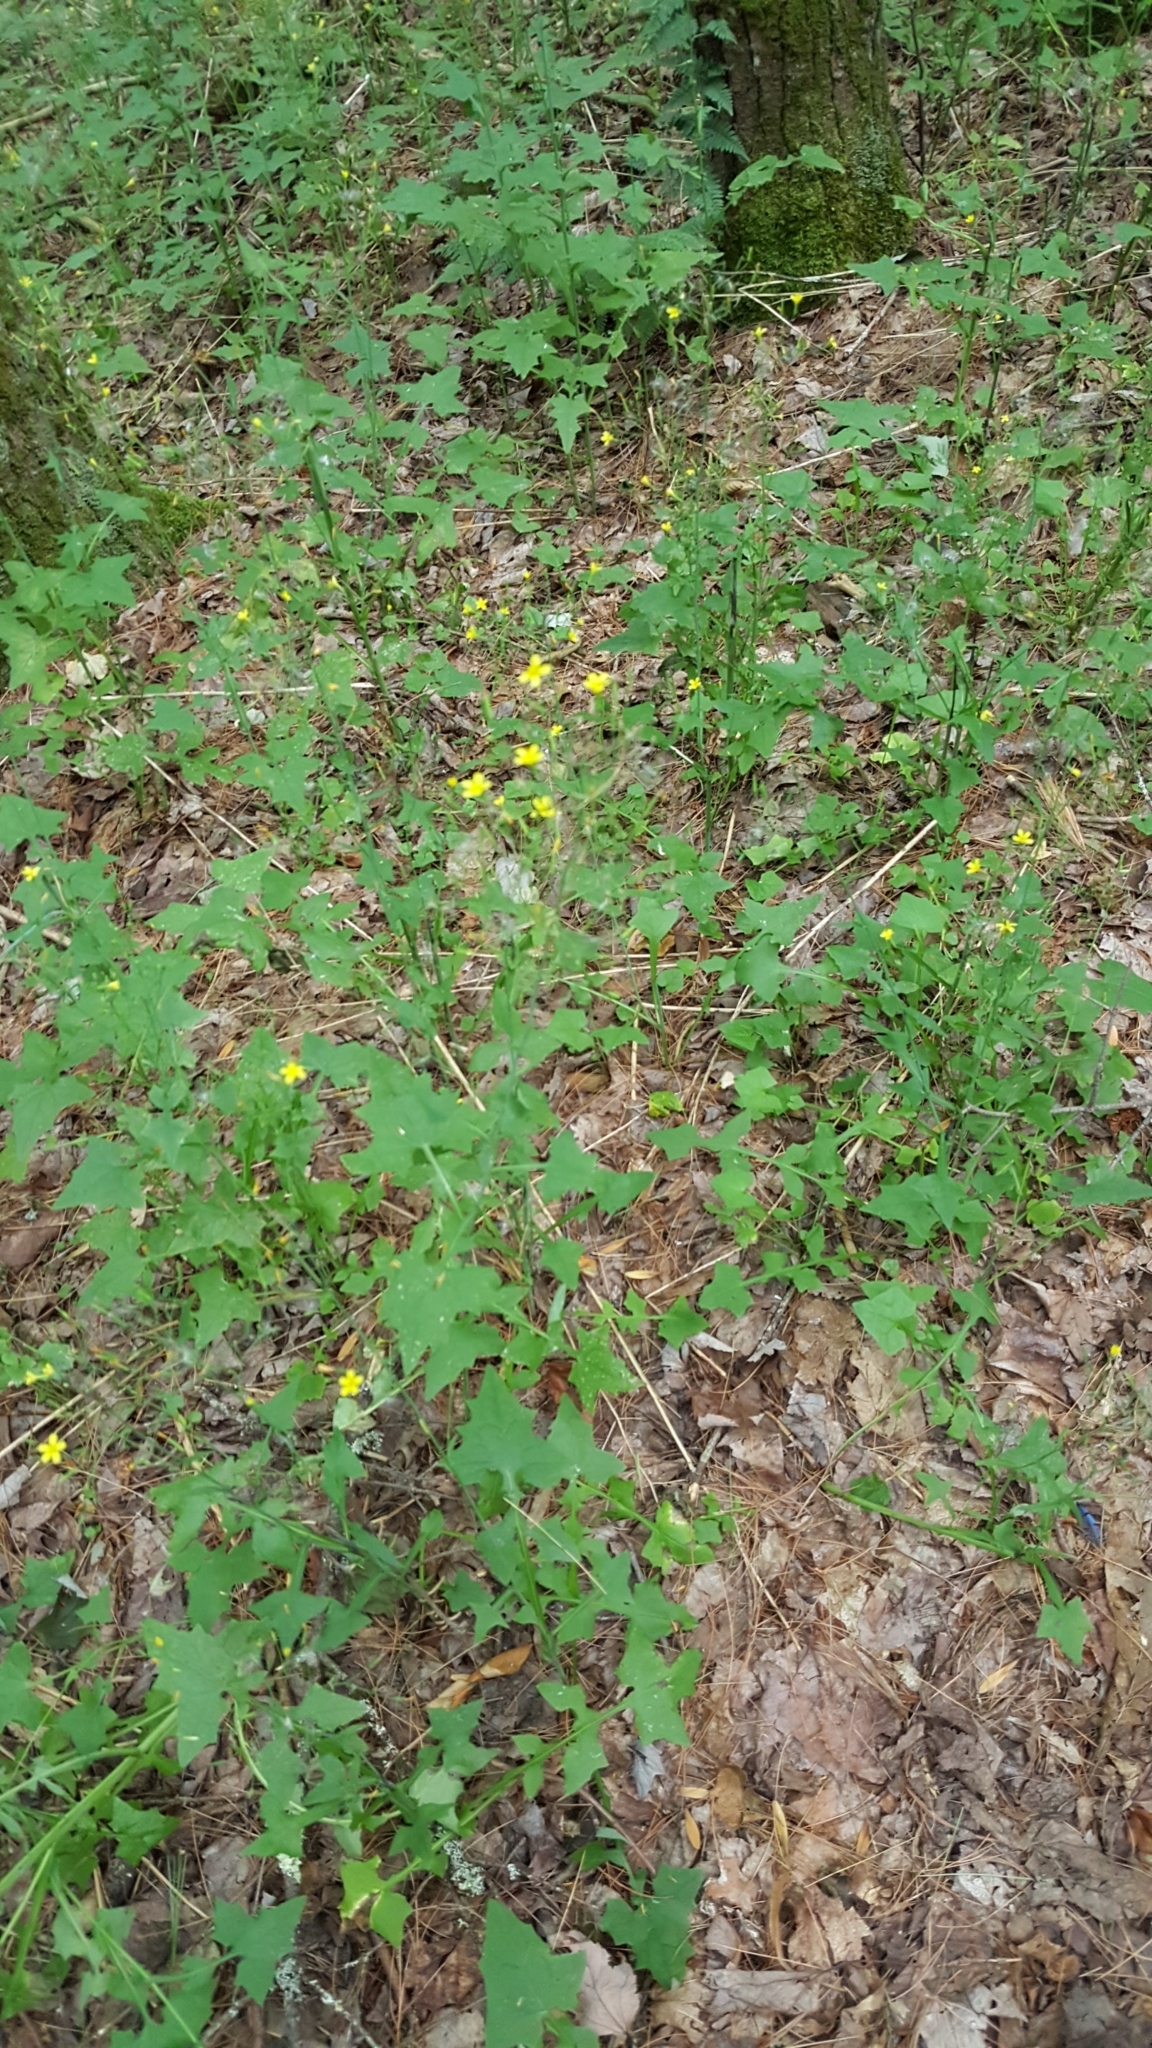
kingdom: Plantae
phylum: Tracheophyta
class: Magnoliopsida
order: Asterales
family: Asteraceae
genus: Mycelis
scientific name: Mycelis muralis
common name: Wall lettuce
